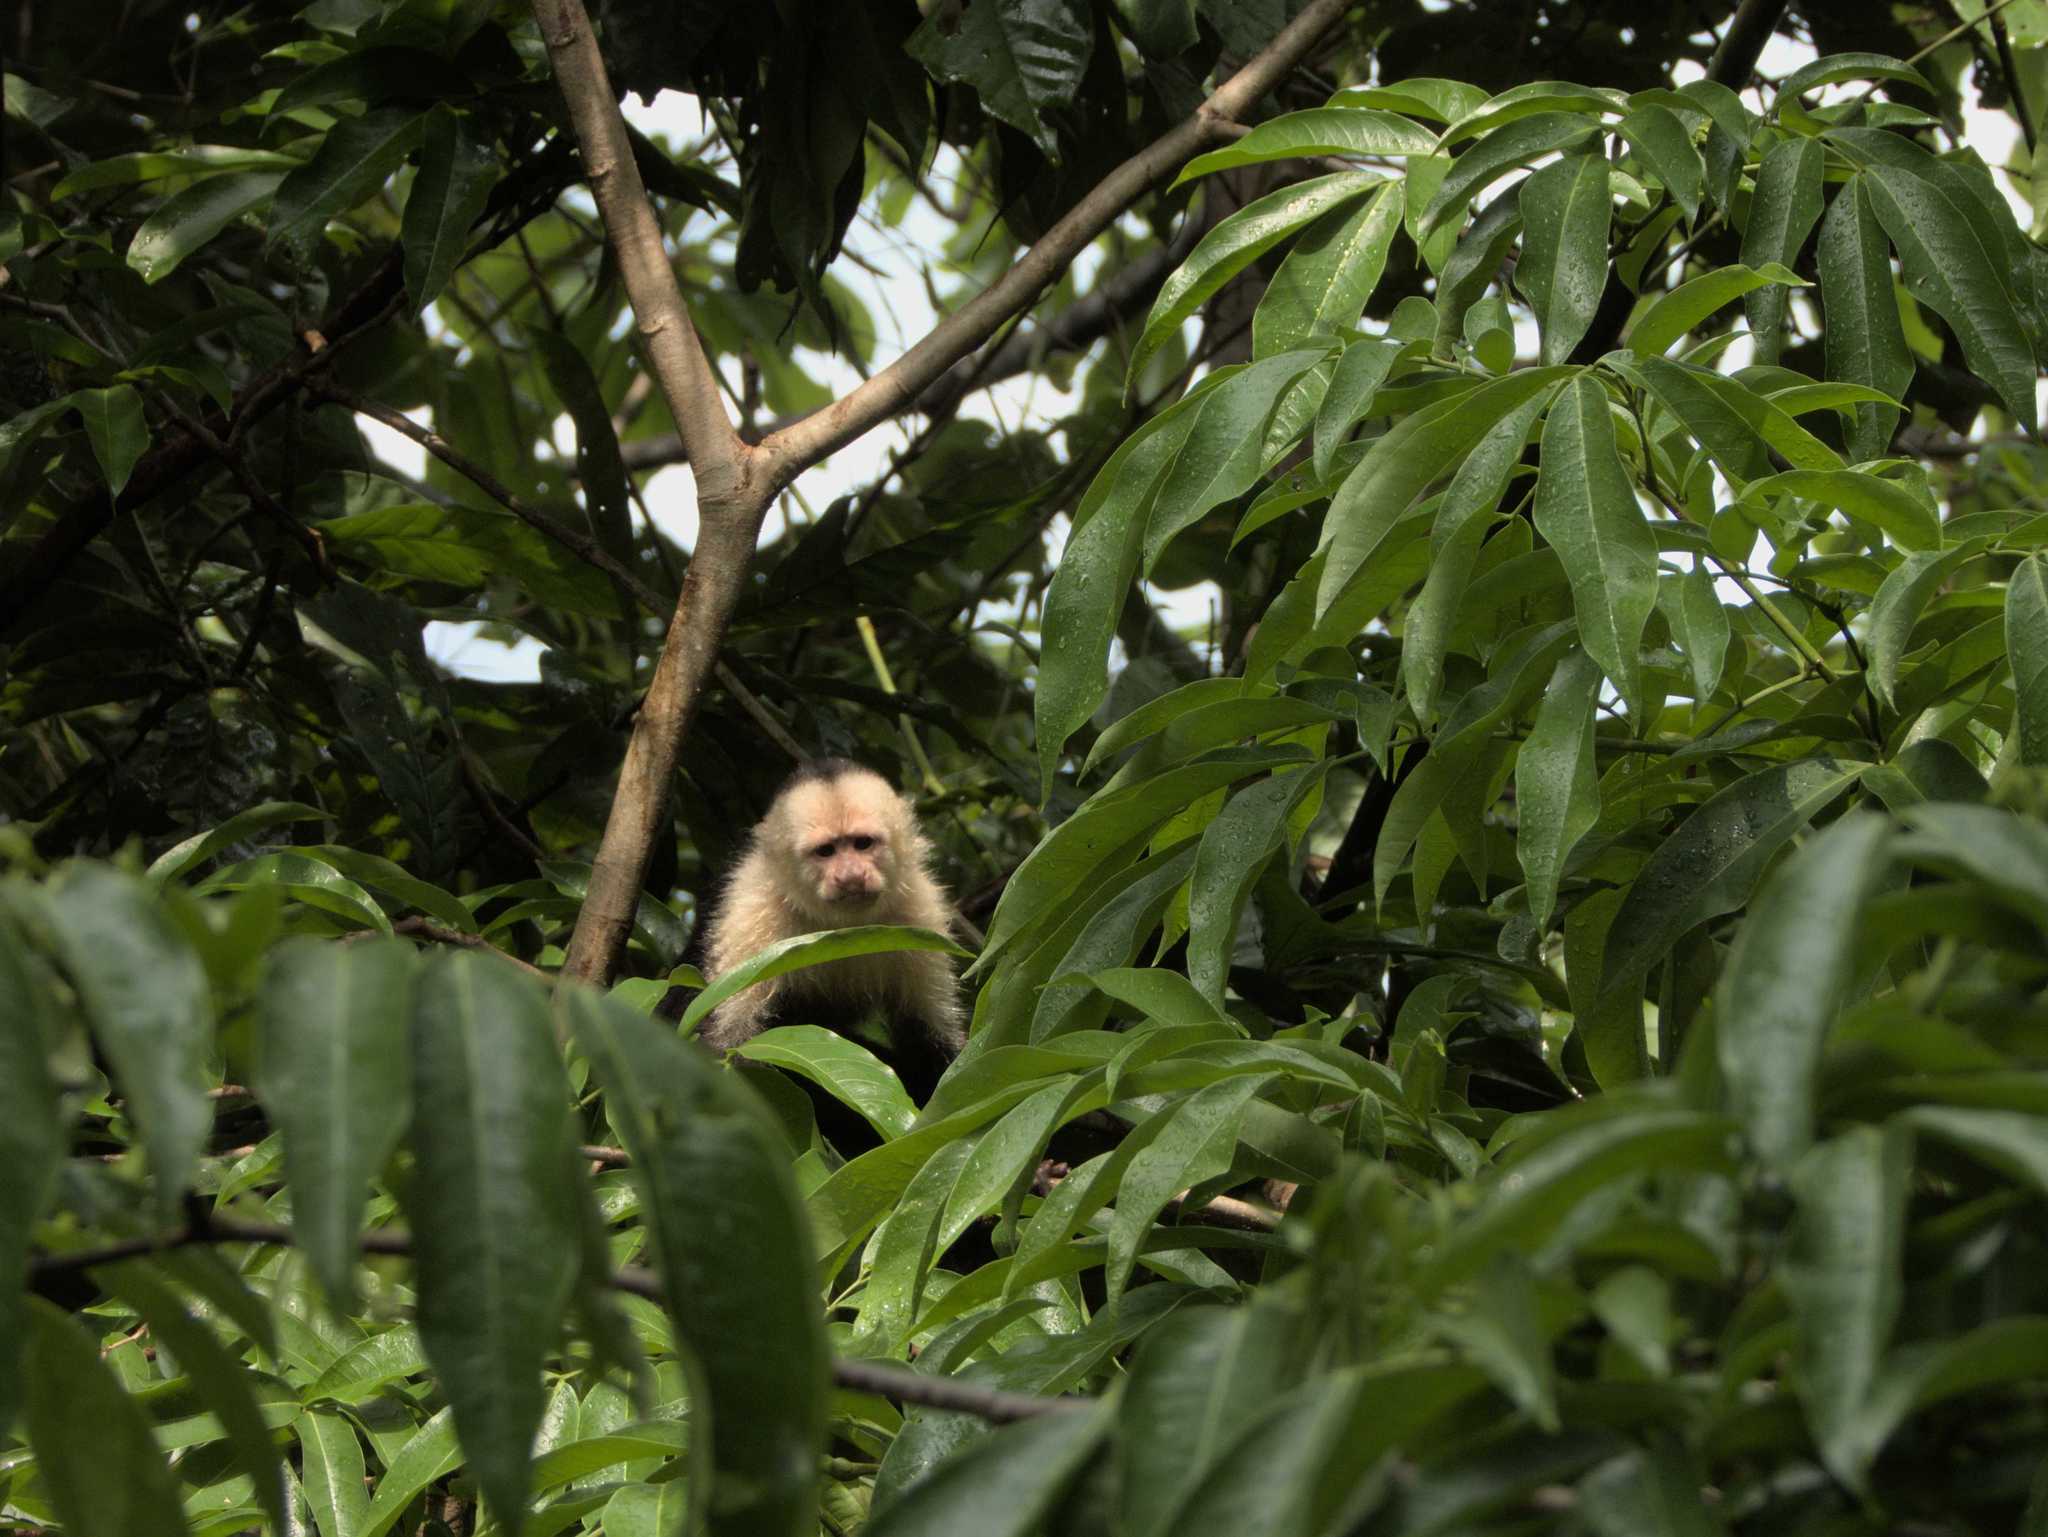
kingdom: Animalia
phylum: Chordata
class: Mammalia
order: Primates
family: Cebidae
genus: Cebus
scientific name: Cebus imitator
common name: Panamanian white-faced capuchin
